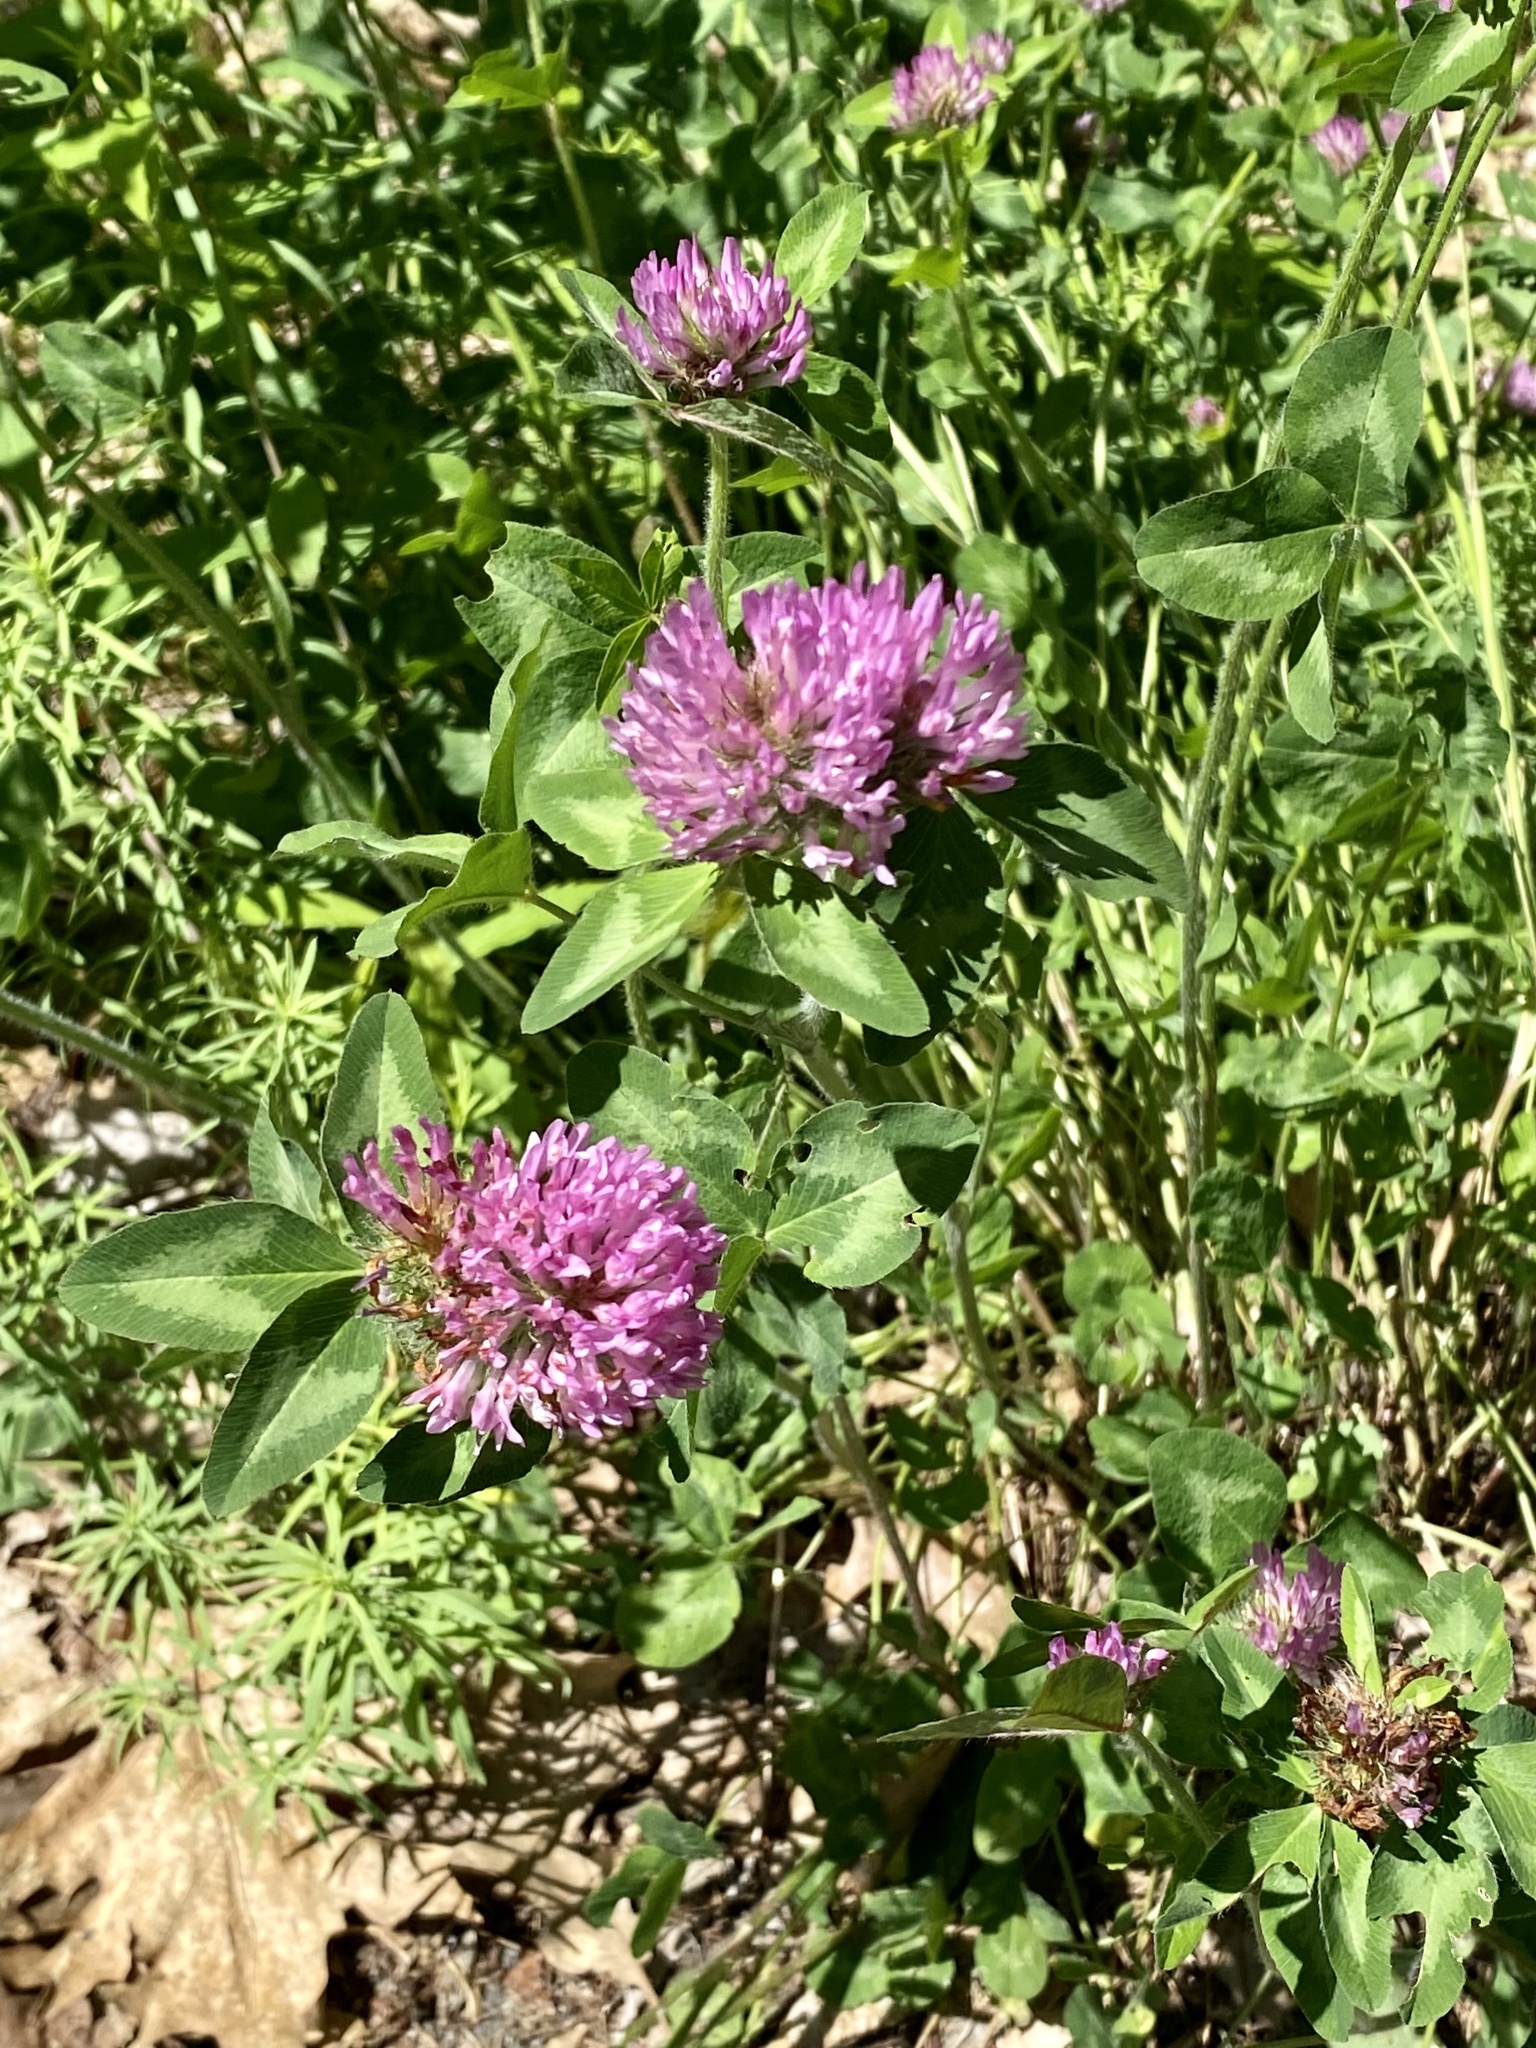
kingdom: Plantae
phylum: Tracheophyta
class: Magnoliopsida
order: Fabales
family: Fabaceae
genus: Trifolium
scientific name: Trifolium pratense
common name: Red clover
